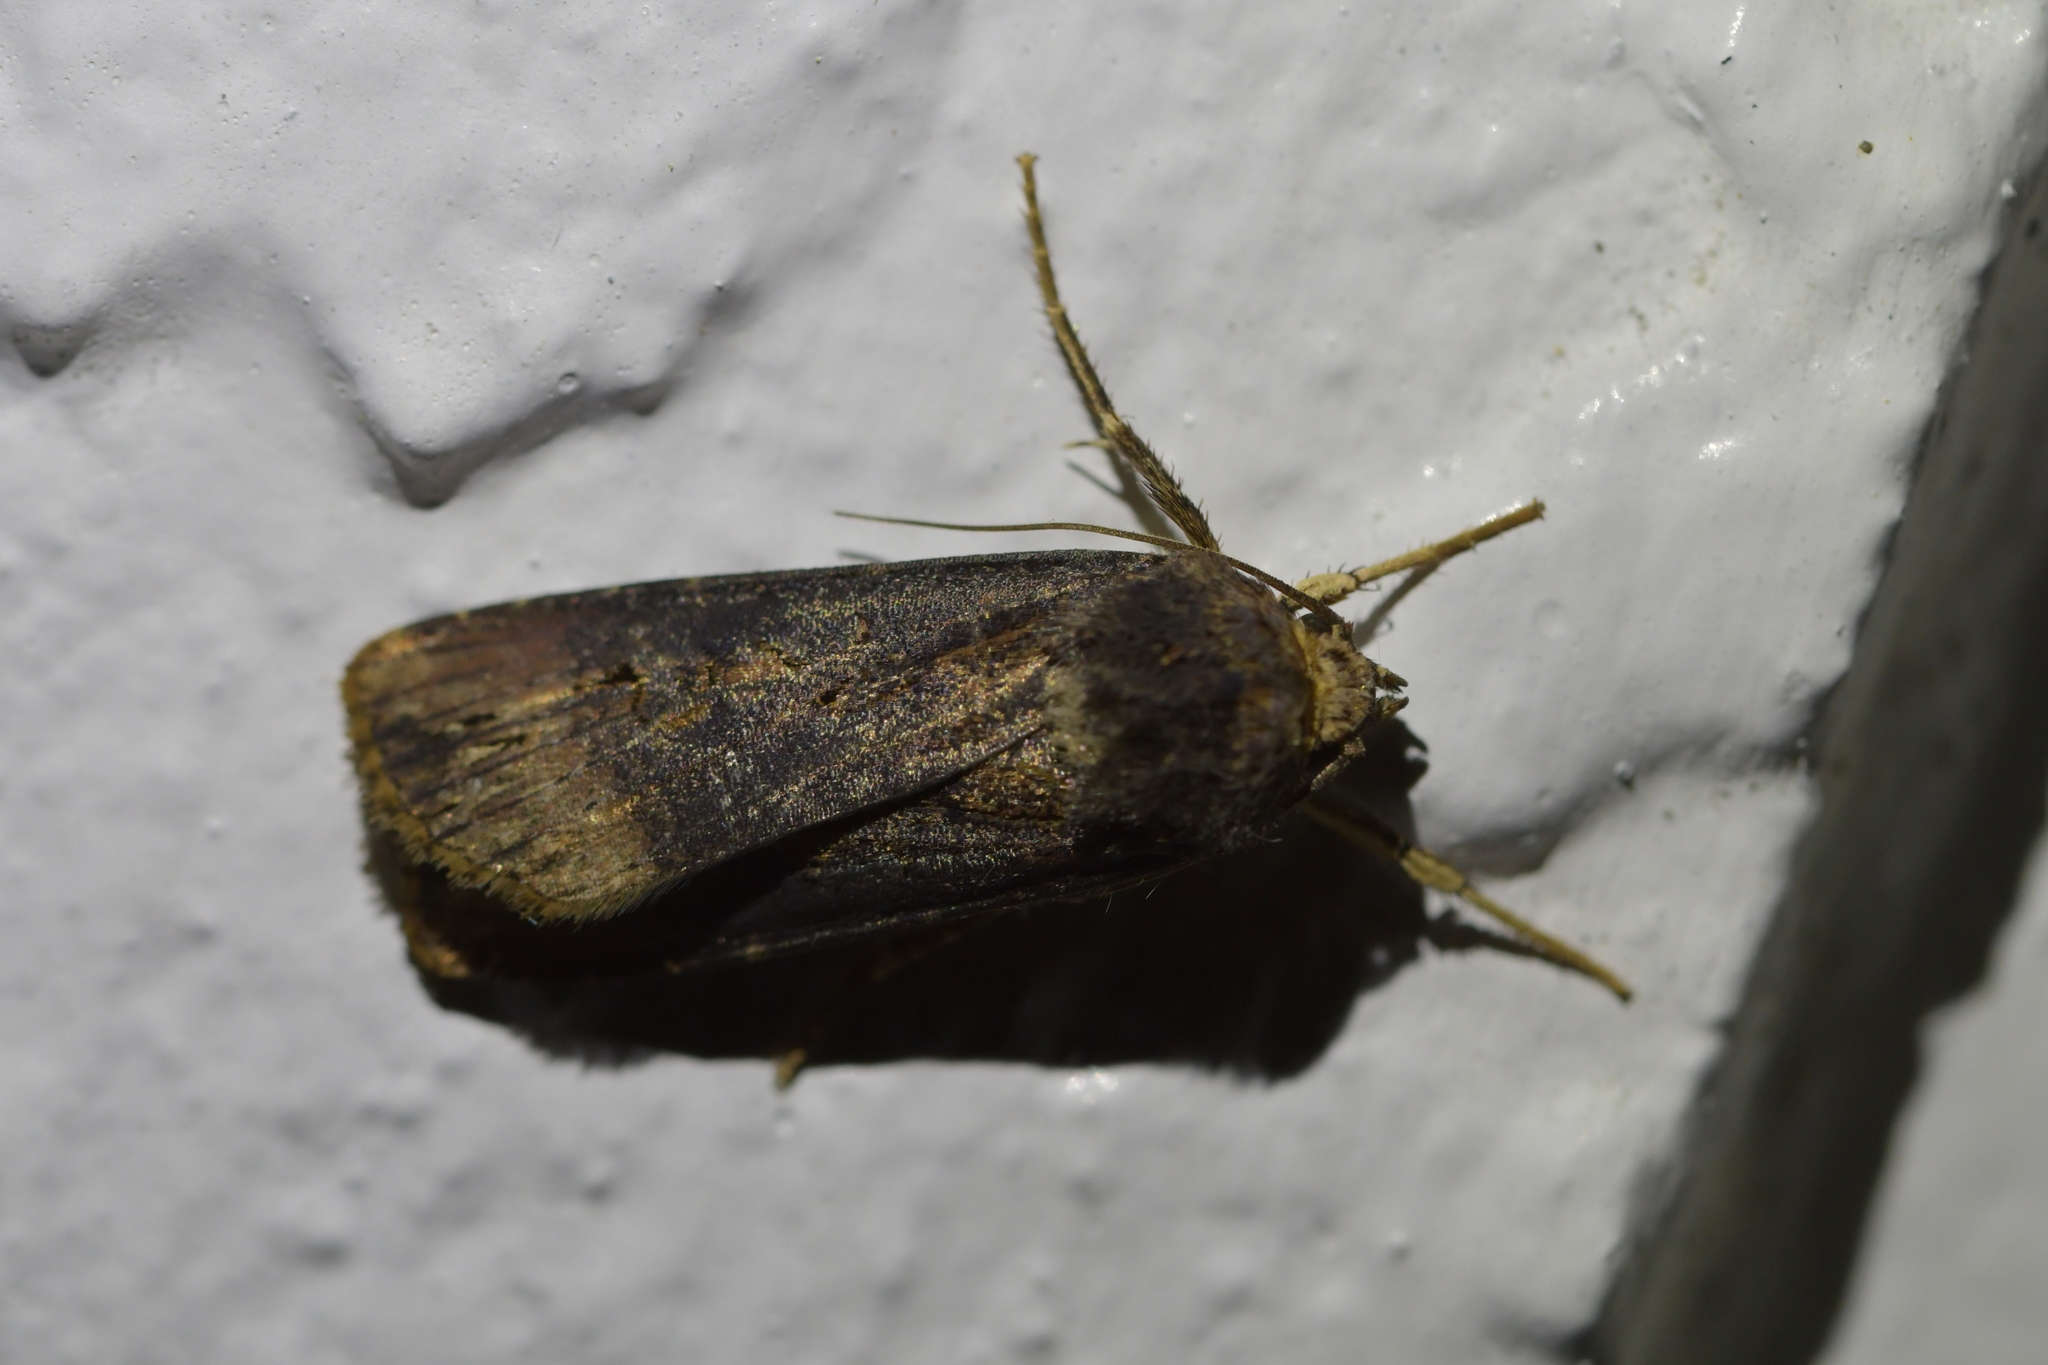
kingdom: Animalia
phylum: Arthropoda
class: Insecta
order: Lepidoptera
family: Noctuidae
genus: Agrotis
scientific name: Agrotis ipsilon
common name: Dark sword-grass
